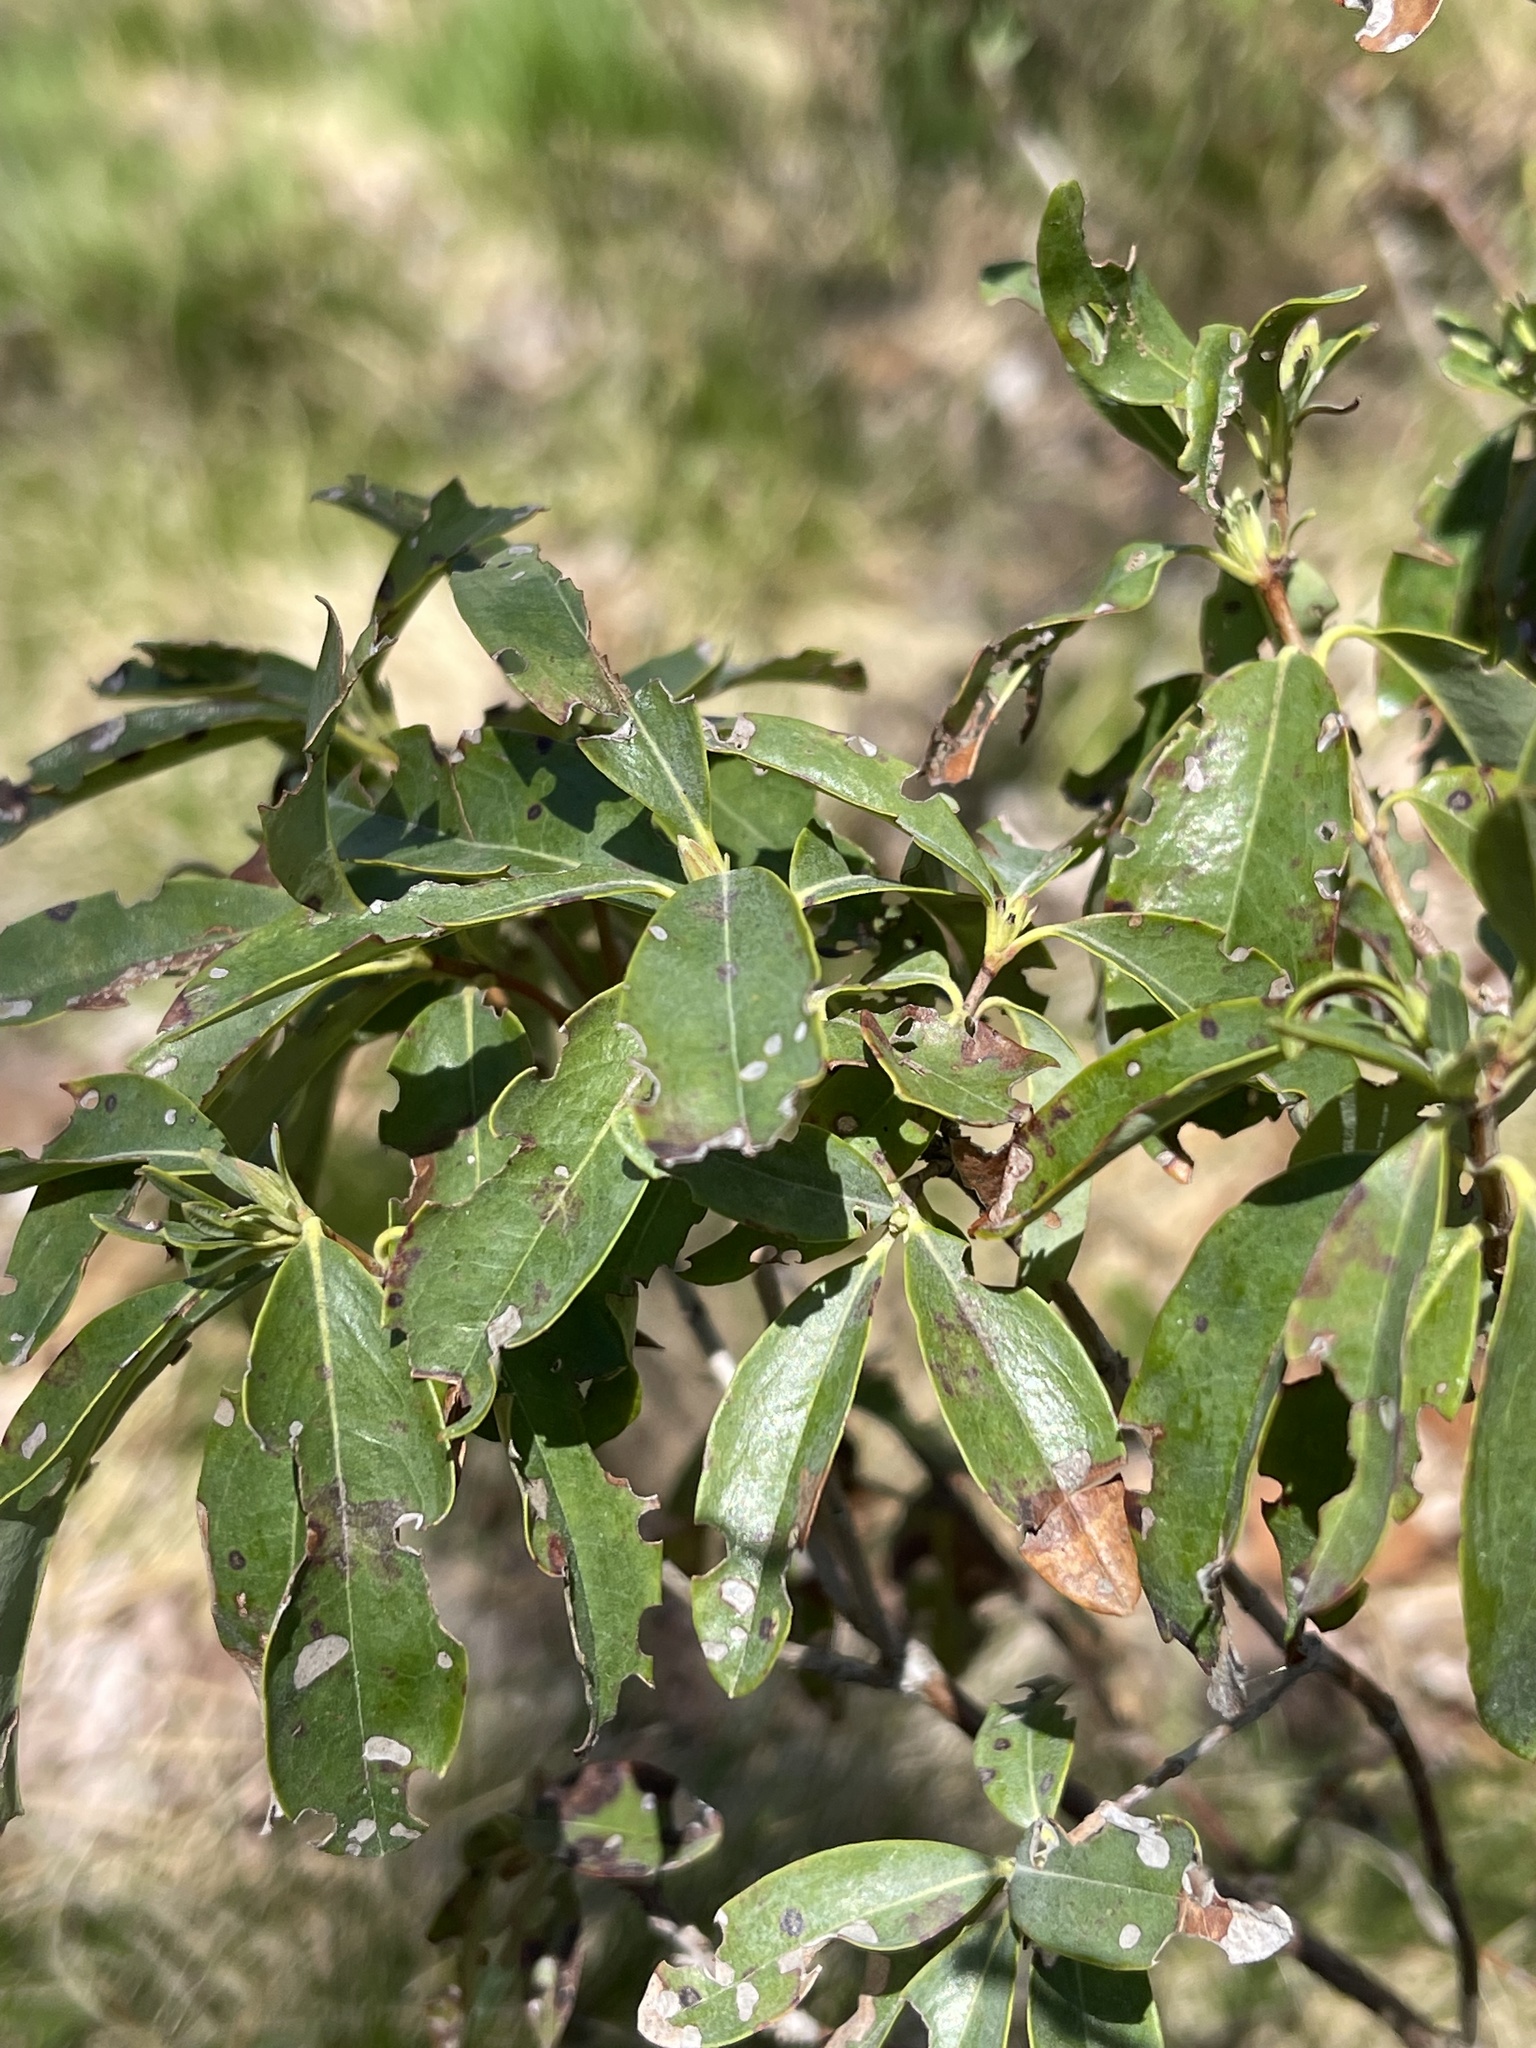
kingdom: Plantae
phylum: Tracheophyta
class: Magnoliopsida
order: Ericales
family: Ericaceae
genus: Kalmia
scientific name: Kalmia angustifolia
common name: Sheep-laurel
